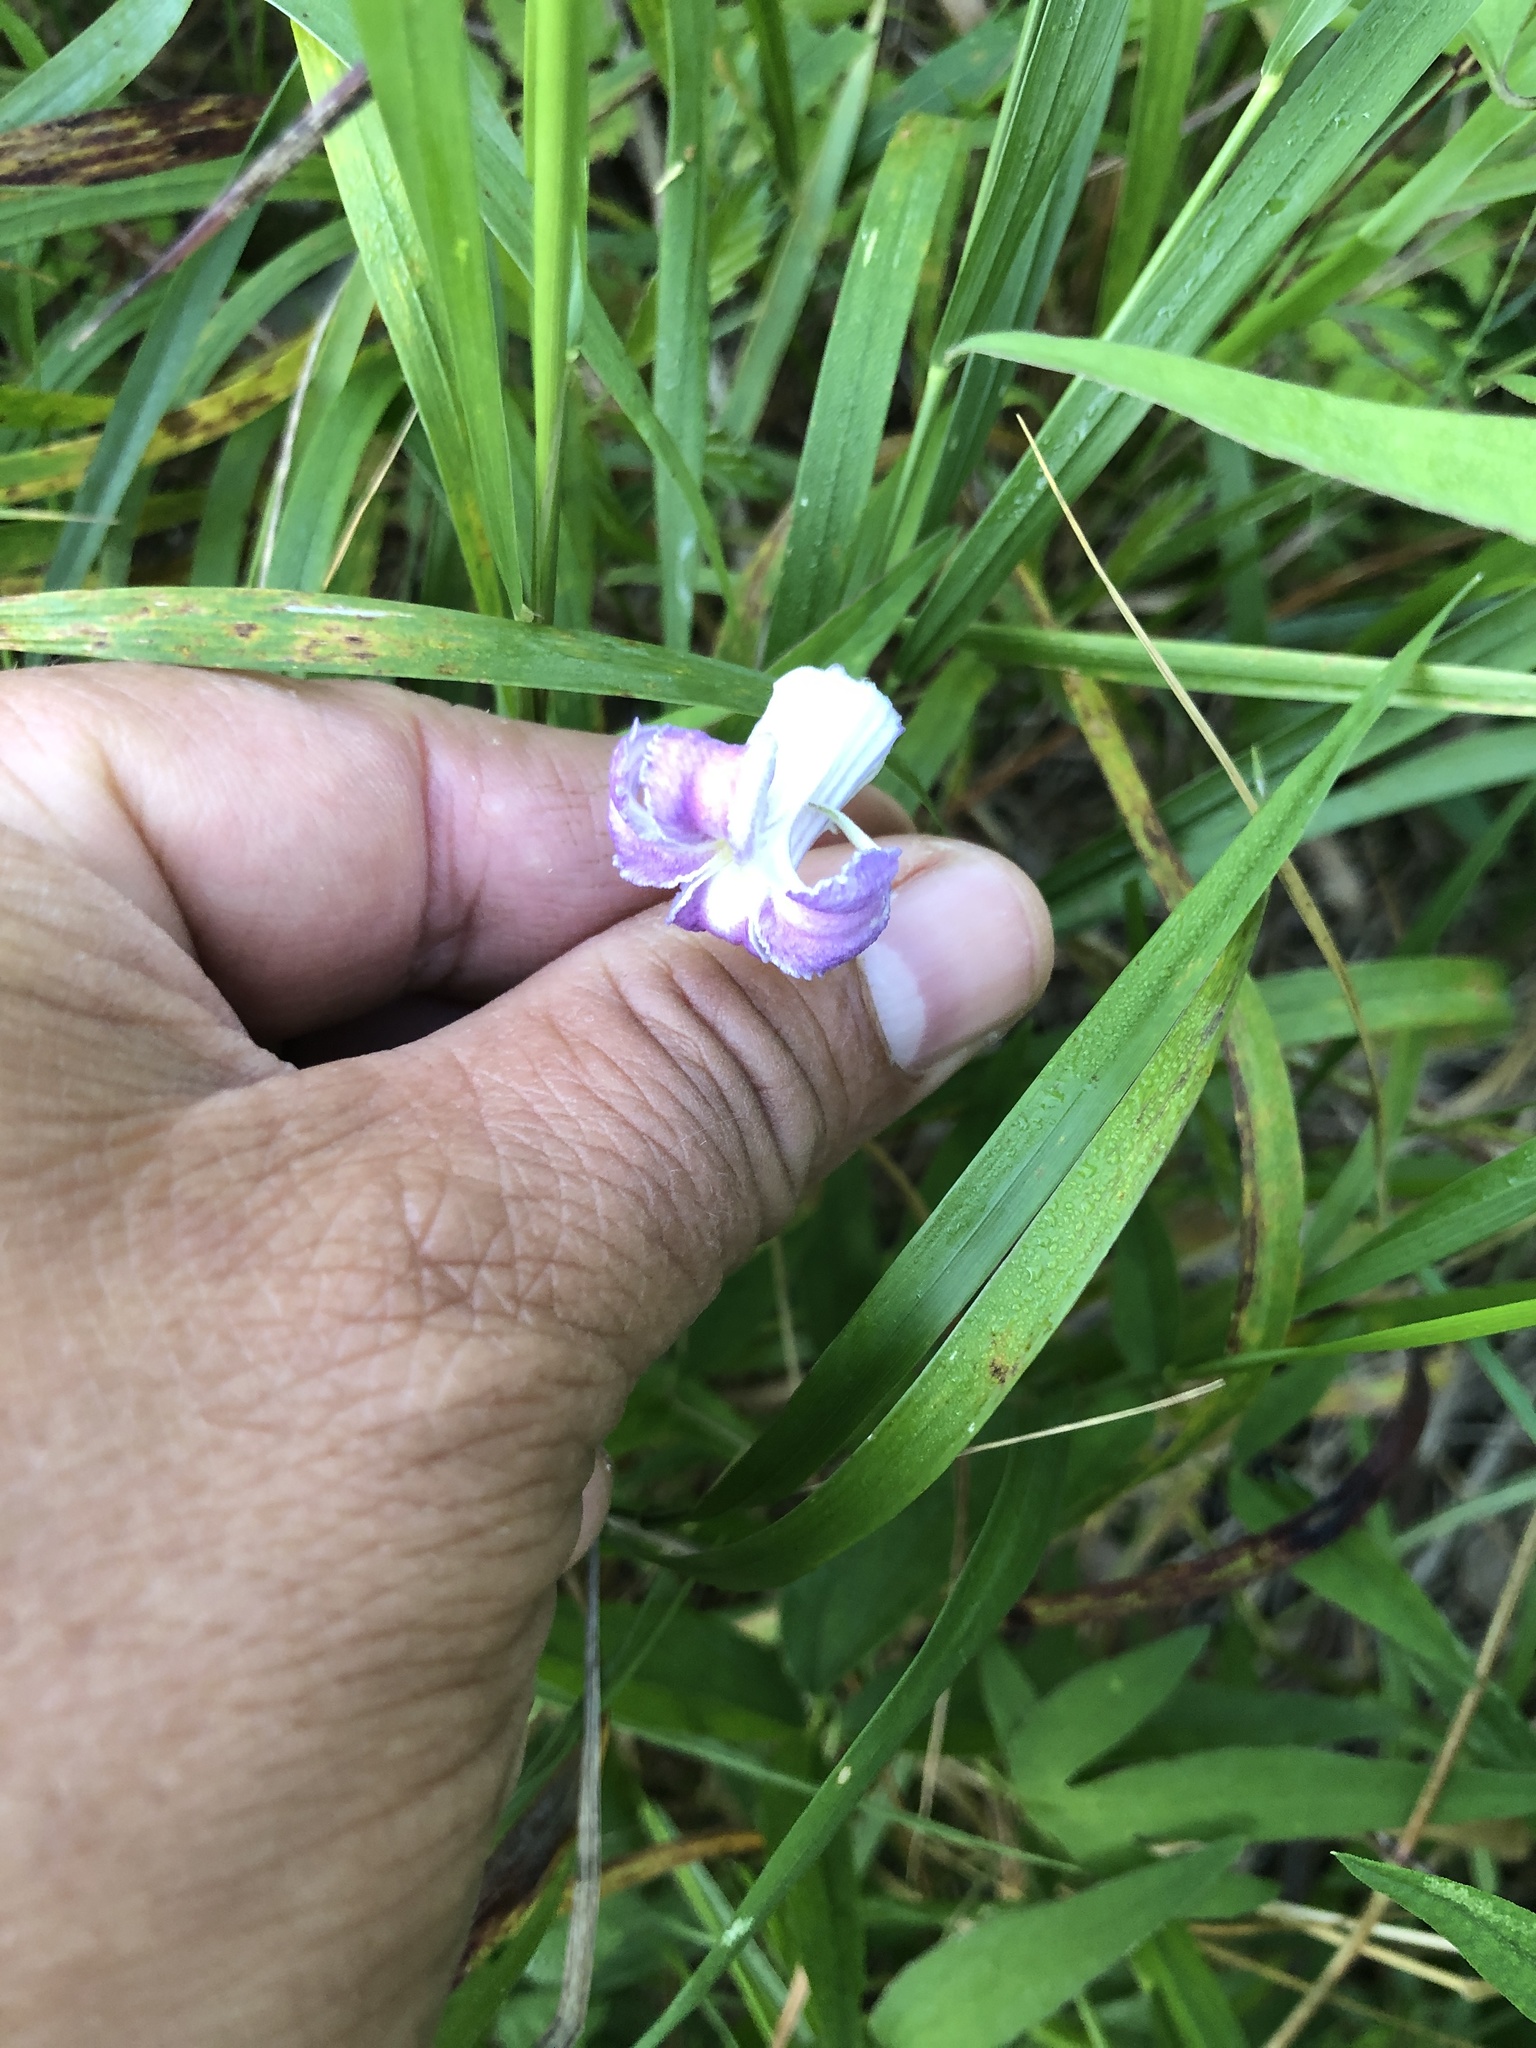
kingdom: Plantae
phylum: Tracheophyta
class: Magnoliopsida
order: Ranunculales
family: Ranunculaceae
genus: Clematis
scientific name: Clematis crispa
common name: Curly clematis
